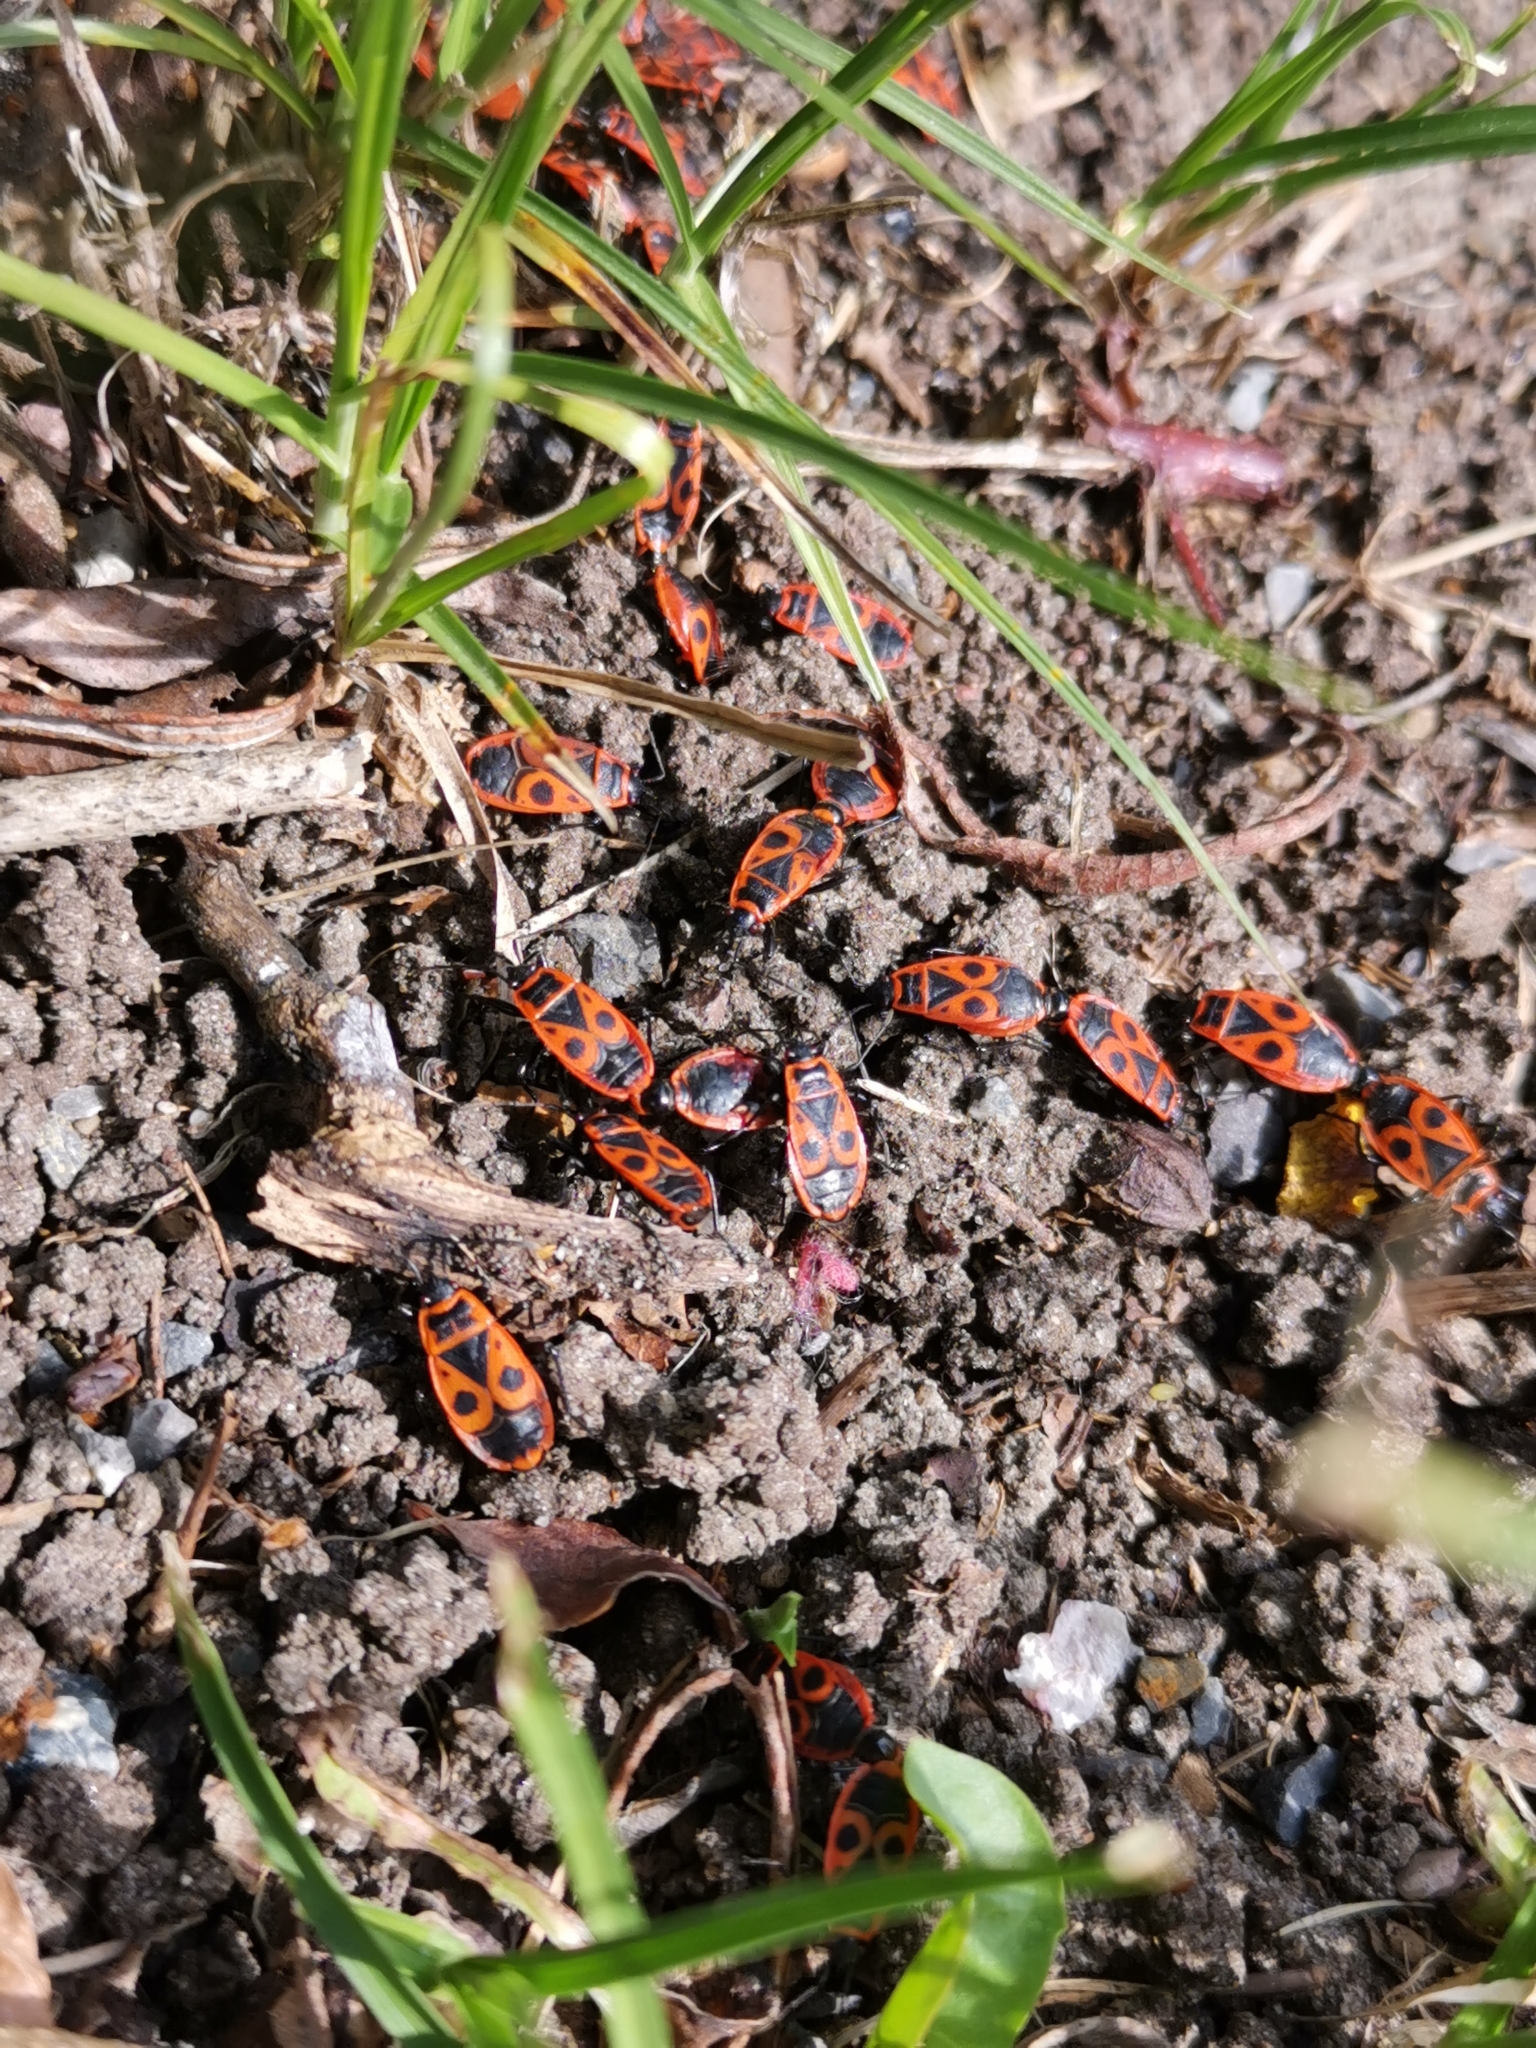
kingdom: Animalia
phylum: Arthropoda
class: Insecta
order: Hemiptera
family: Pyrrhocoridae
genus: Pyrrhocoris
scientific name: Pyrrhocoris apterus
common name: Firebug
